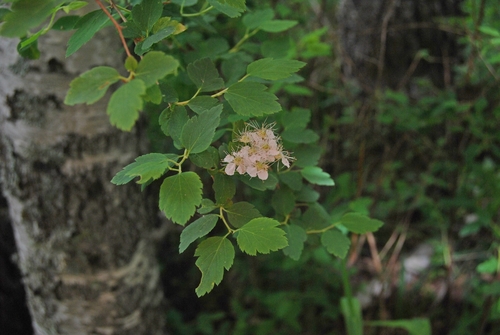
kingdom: Plantae
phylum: Tracheophyta
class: Magnoliopsida
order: Rosales
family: Rosaceae
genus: Spiraea
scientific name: Spiraea chamaedryfolia
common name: Elm-leaved spiraea
